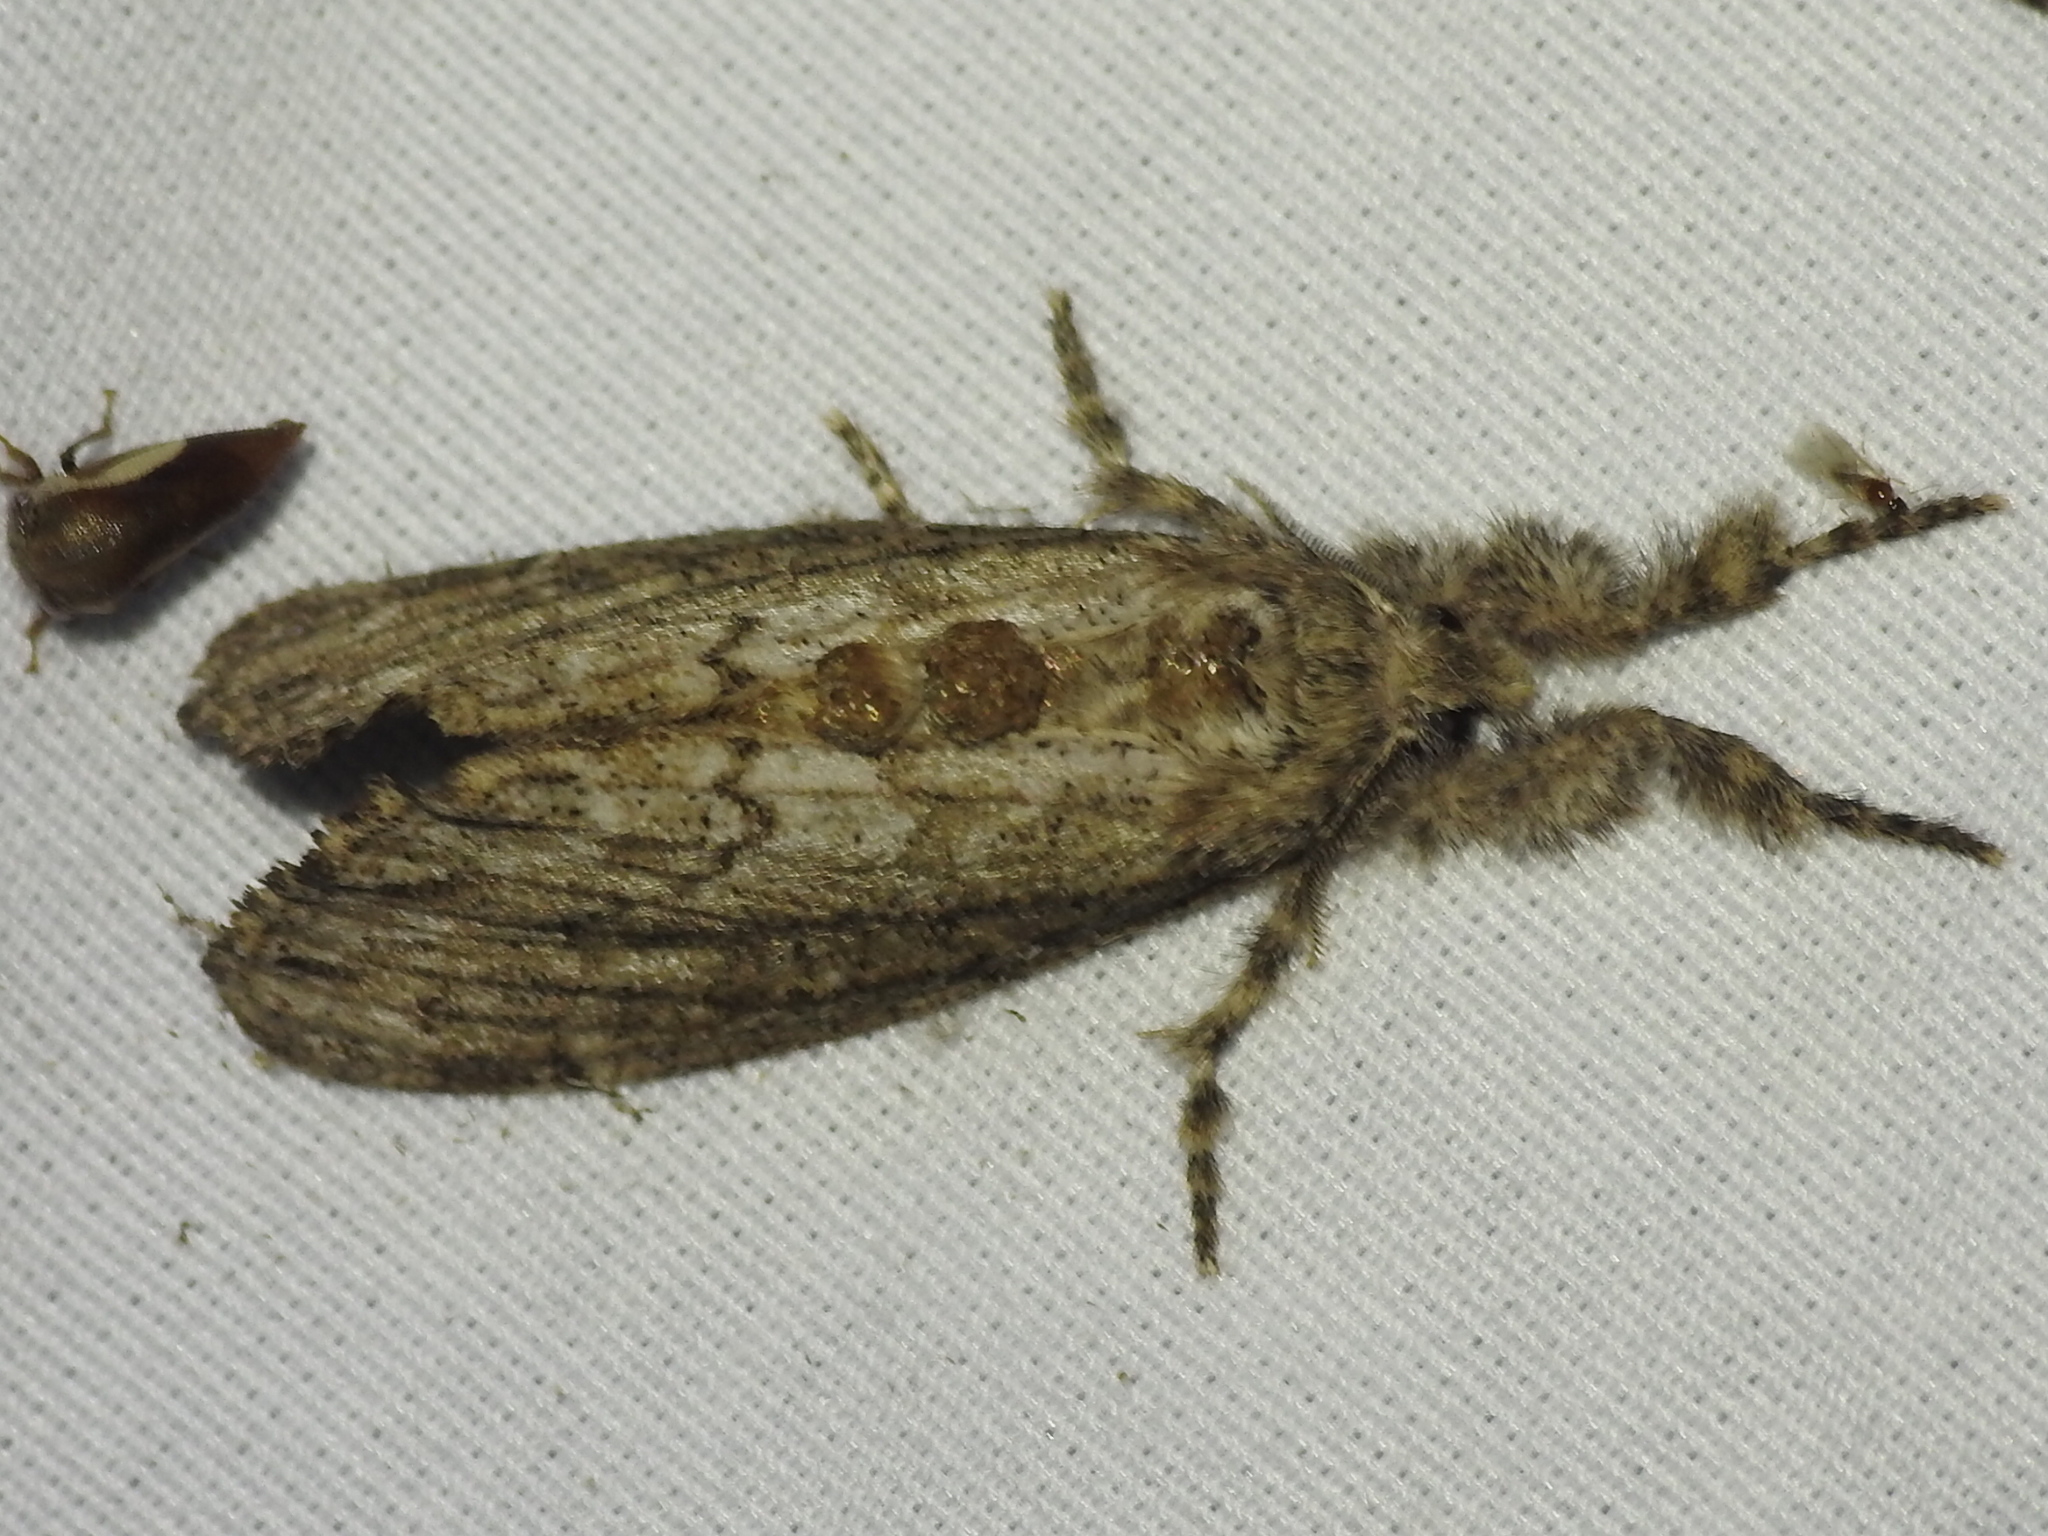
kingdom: Animalia
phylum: Arthropoda
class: Insecta
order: Lepidoptera
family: Erebidae
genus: Dasychira
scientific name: Dasychira atrivenosa
